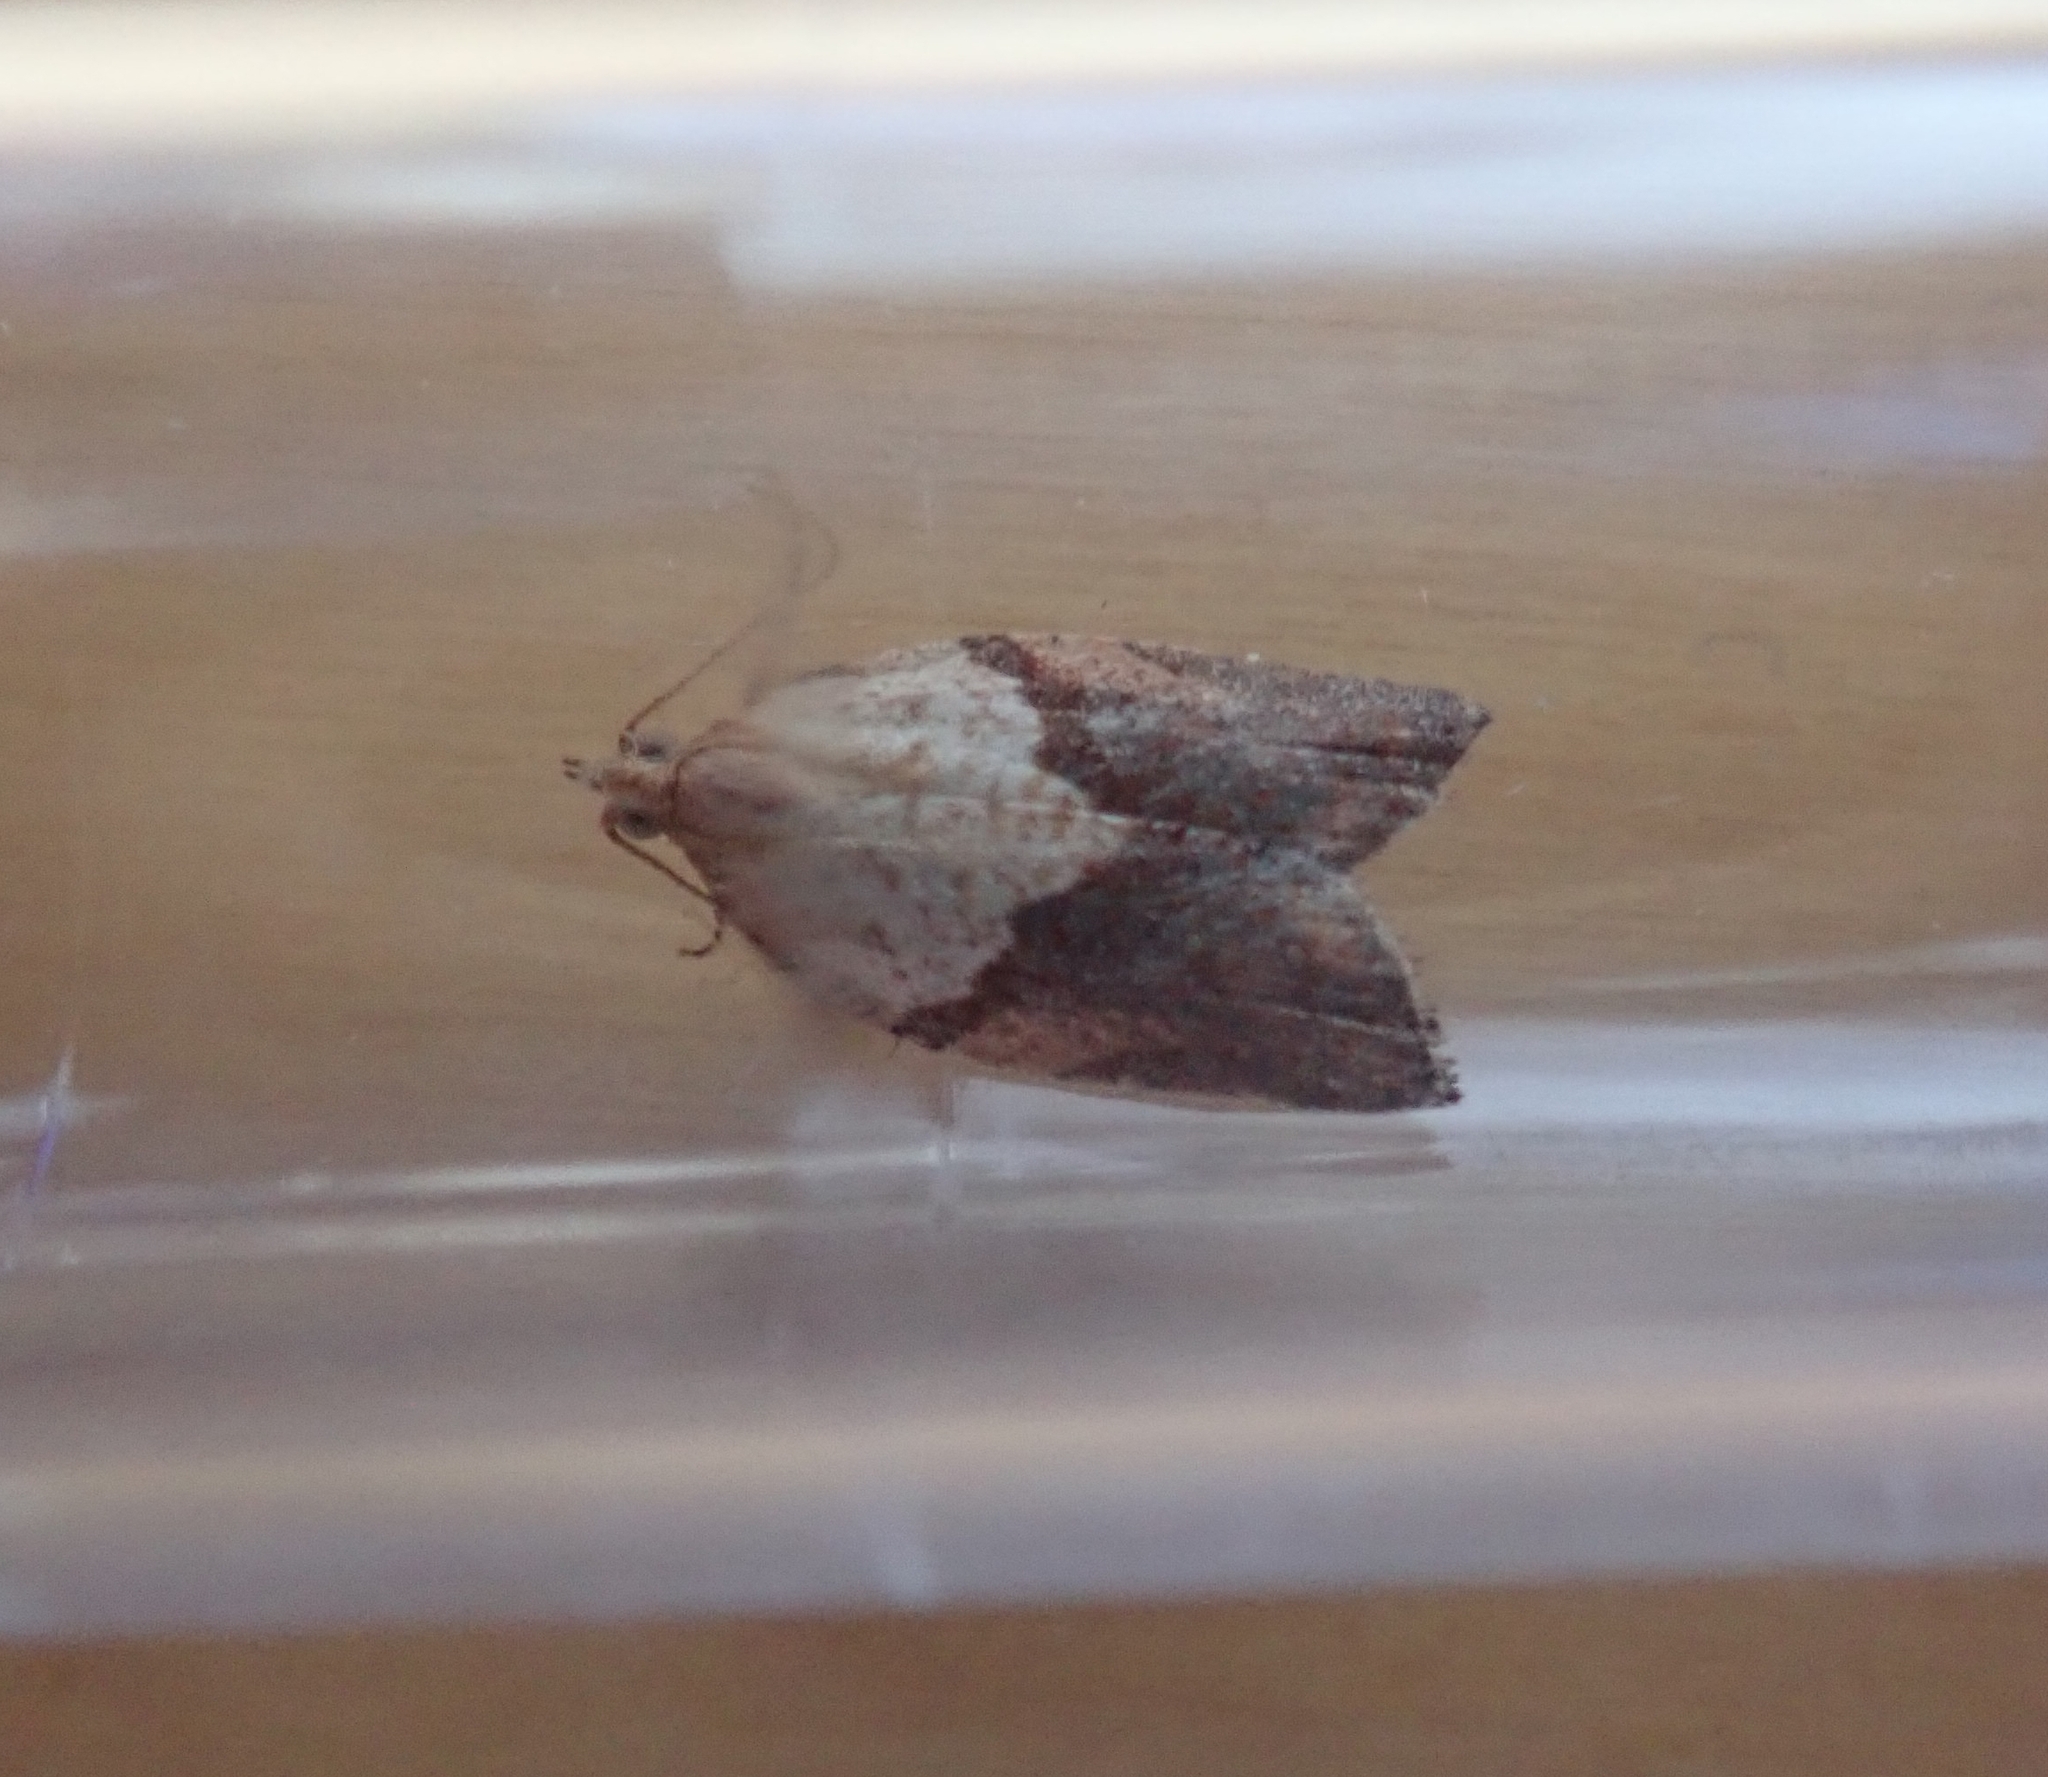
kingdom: Animalia
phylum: Arthropoda
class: Insecta
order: Lepidoptera
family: Tortricidae
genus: Epiphyas
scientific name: Epiphyas postvittana
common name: Light brown apple moth
